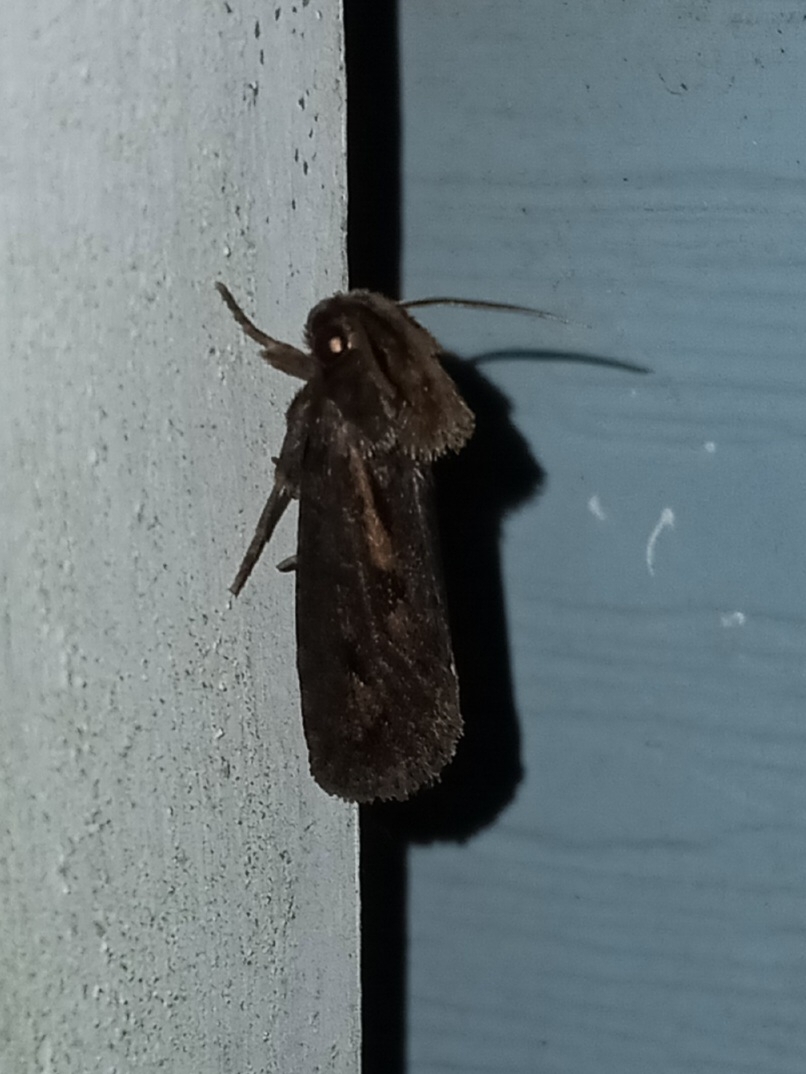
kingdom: Animalia
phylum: Arthropoda
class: Insecta
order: Lepidoptera
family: Tineidae
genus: Acrolophus
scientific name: Acrolophus popeanella
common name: Clemens' grass tubeworm moth
